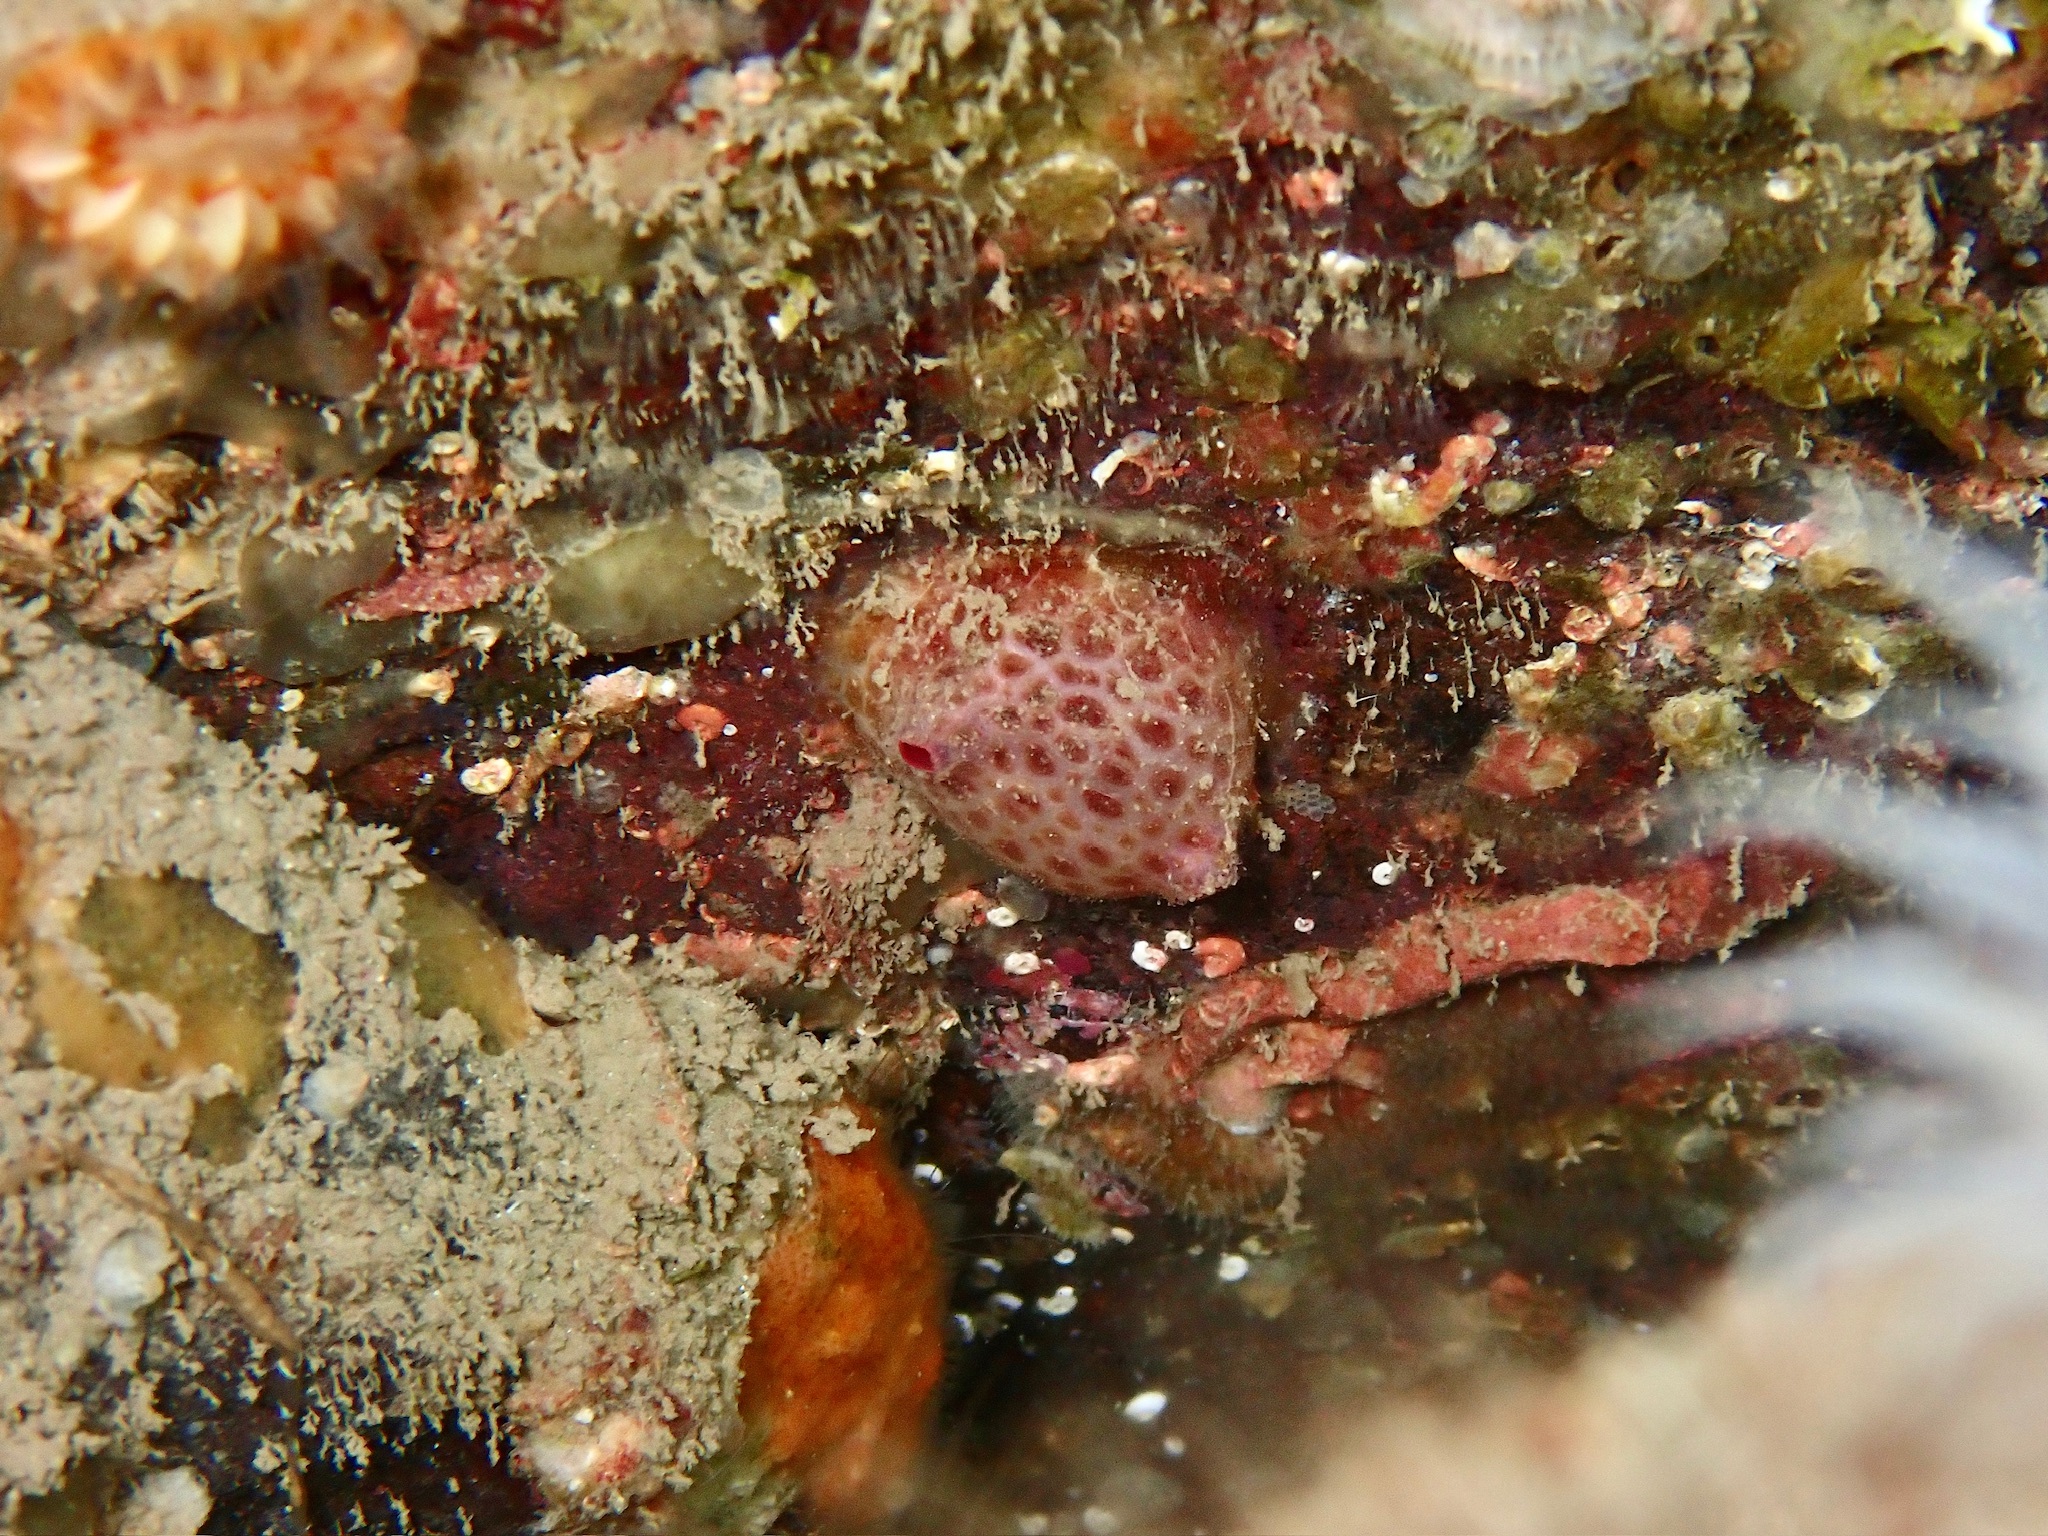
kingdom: Animalia
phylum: Chordata
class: Ascidiacea
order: Stolidobranchia
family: Pyuridae
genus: Pyura
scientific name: Pyura tessellata
